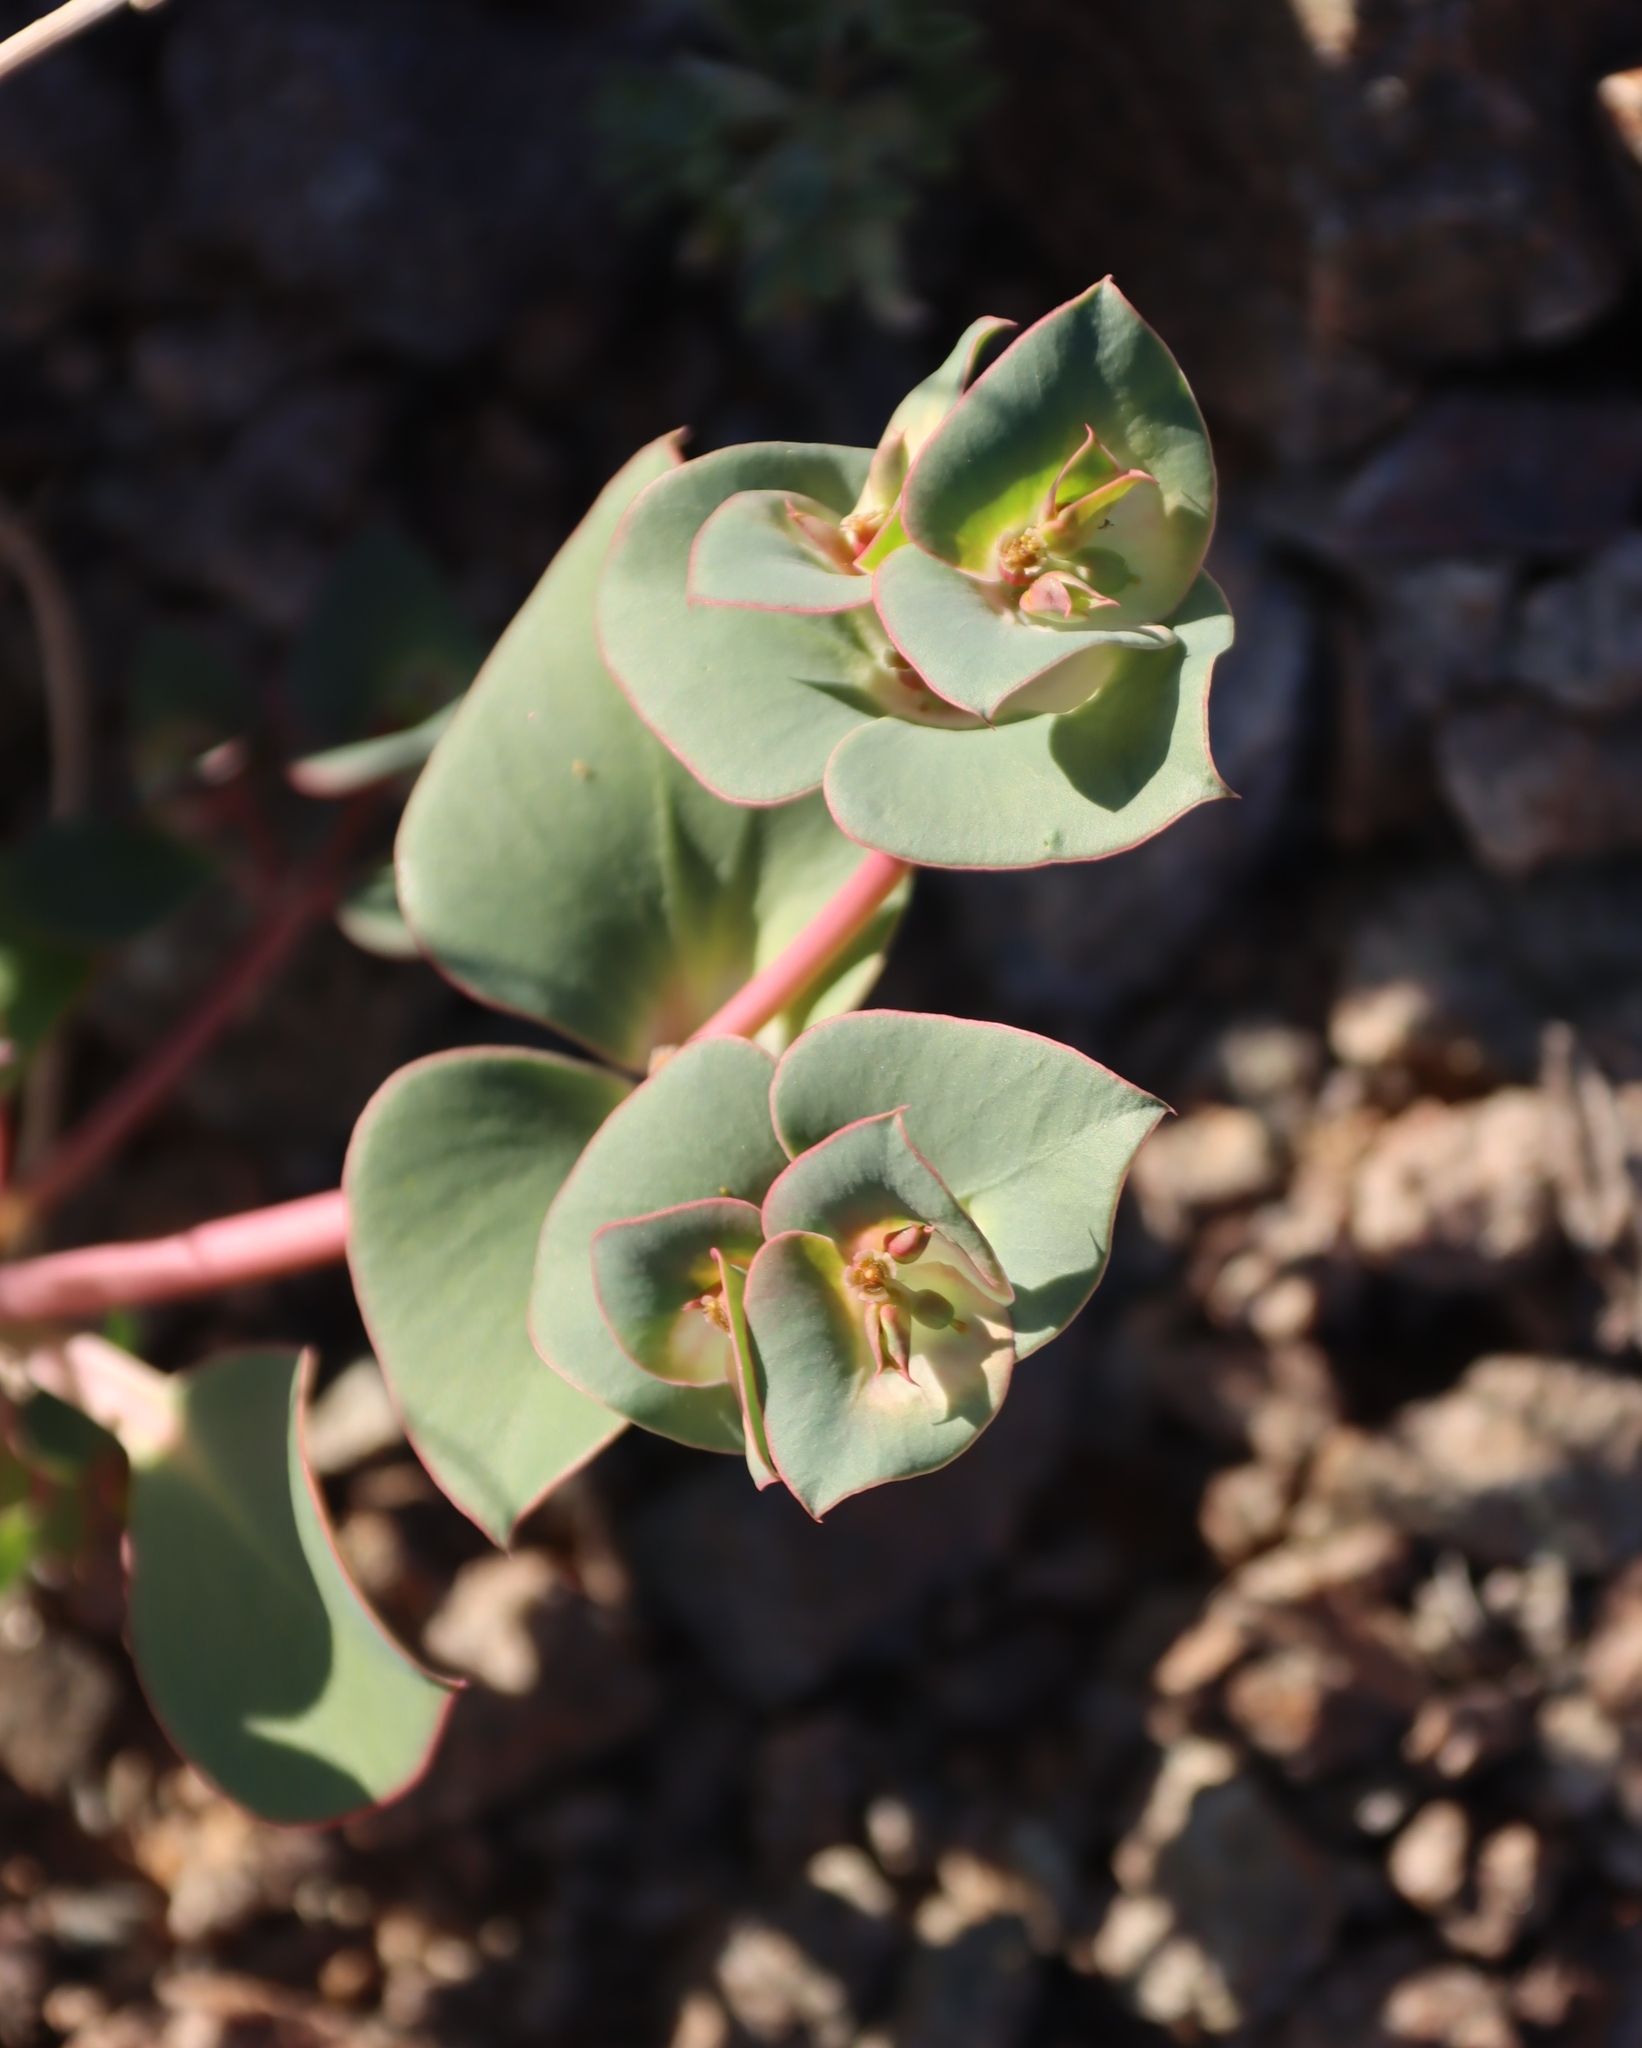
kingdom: Plantae
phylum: Tracheophyta
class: Magnoliopsida
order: Malpighiales
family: Euphorbiaceae
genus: Euphorbia
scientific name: Euphorbia phylloclada
